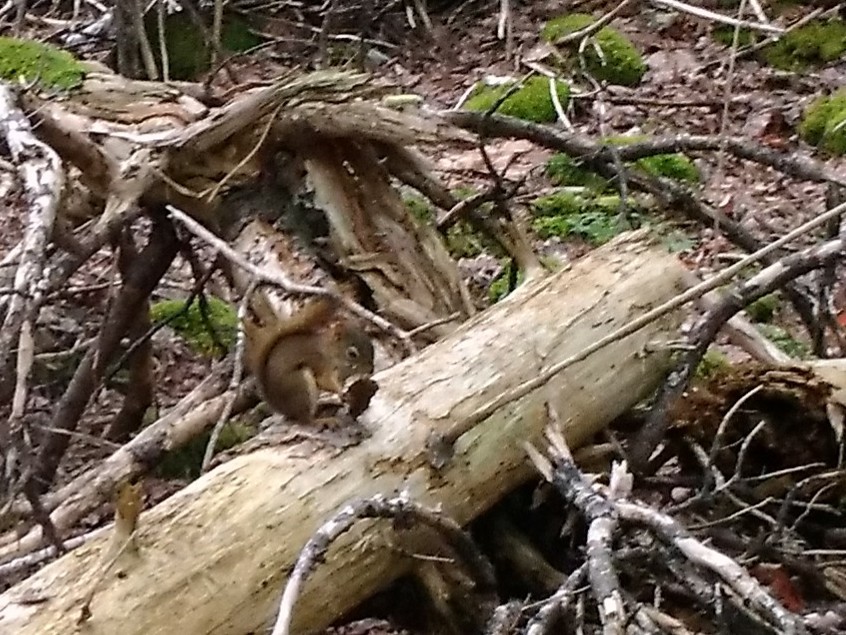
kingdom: Animalia
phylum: Chordata
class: Mammalia
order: Rodentia
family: Sciuridae
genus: Tamiasciurus
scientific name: Tamiasciurus hudsonicus
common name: Red squirrel
